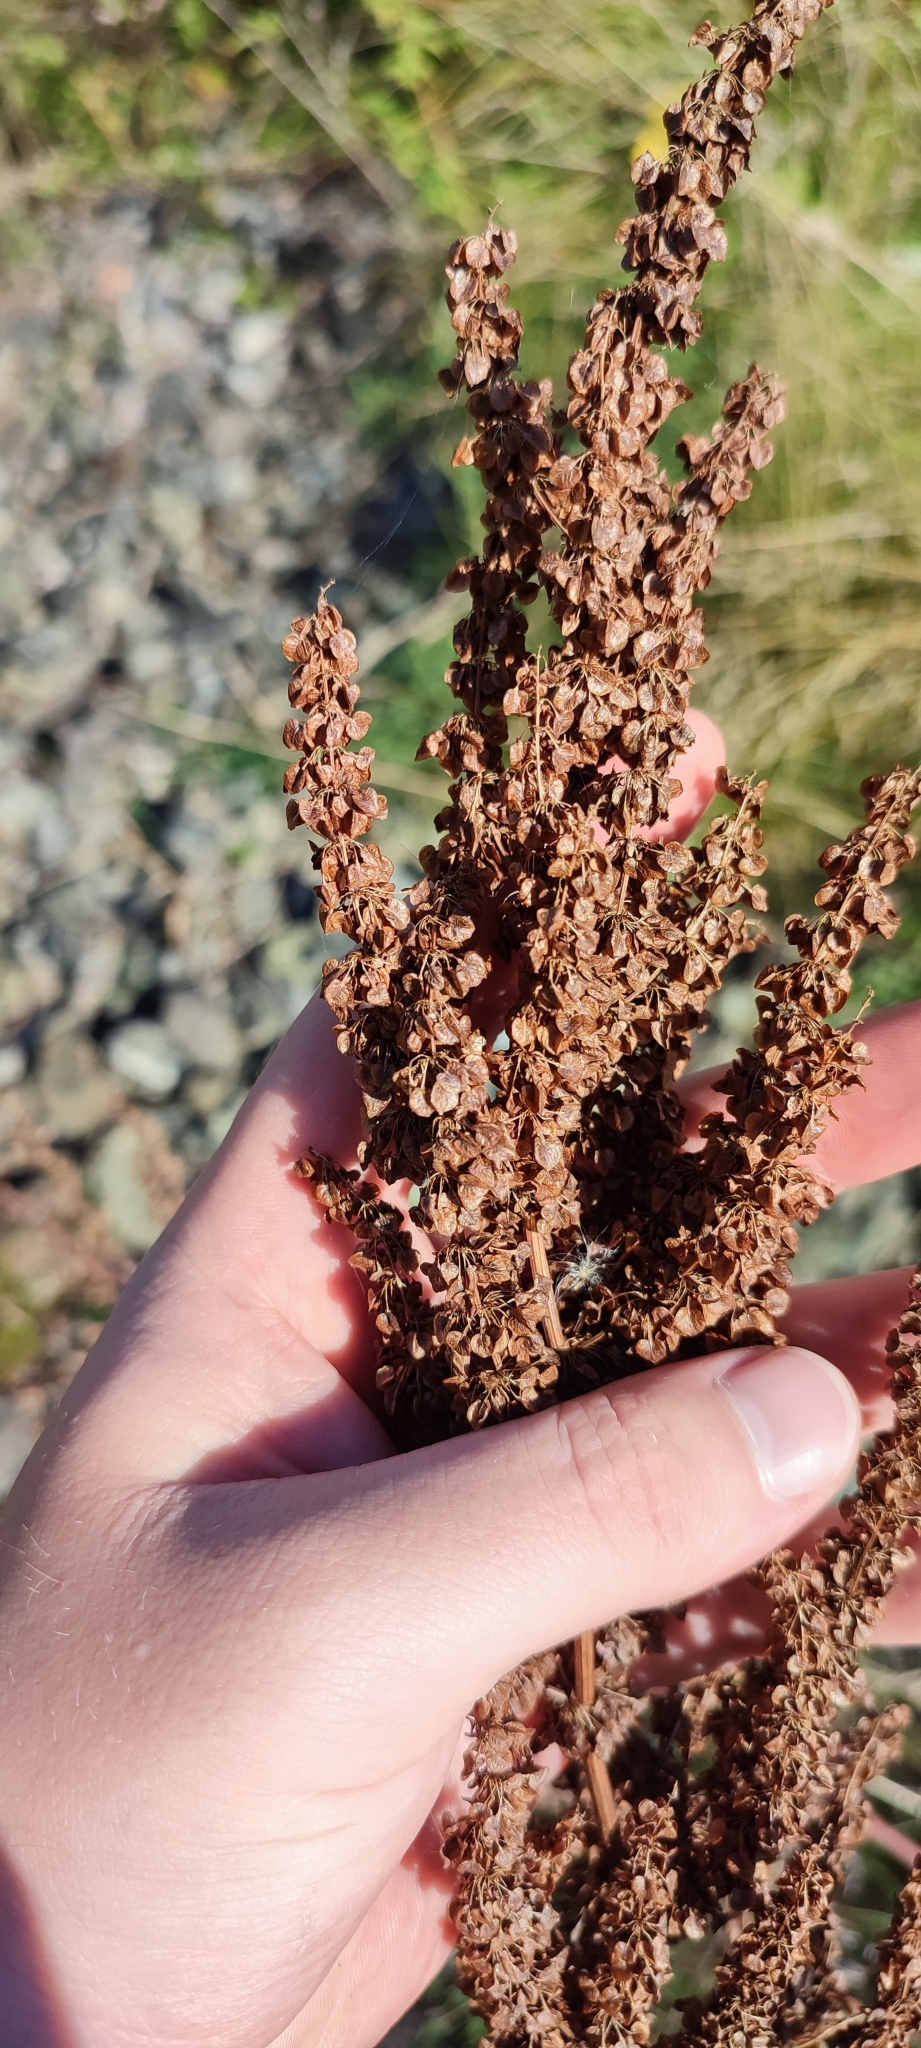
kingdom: Plantae
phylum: Tracheophyta
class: Magnoliopsida
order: Caryophyllales
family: Polygonaceae
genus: Rumex
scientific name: Rumex pseudonatronatus
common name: Field dock
